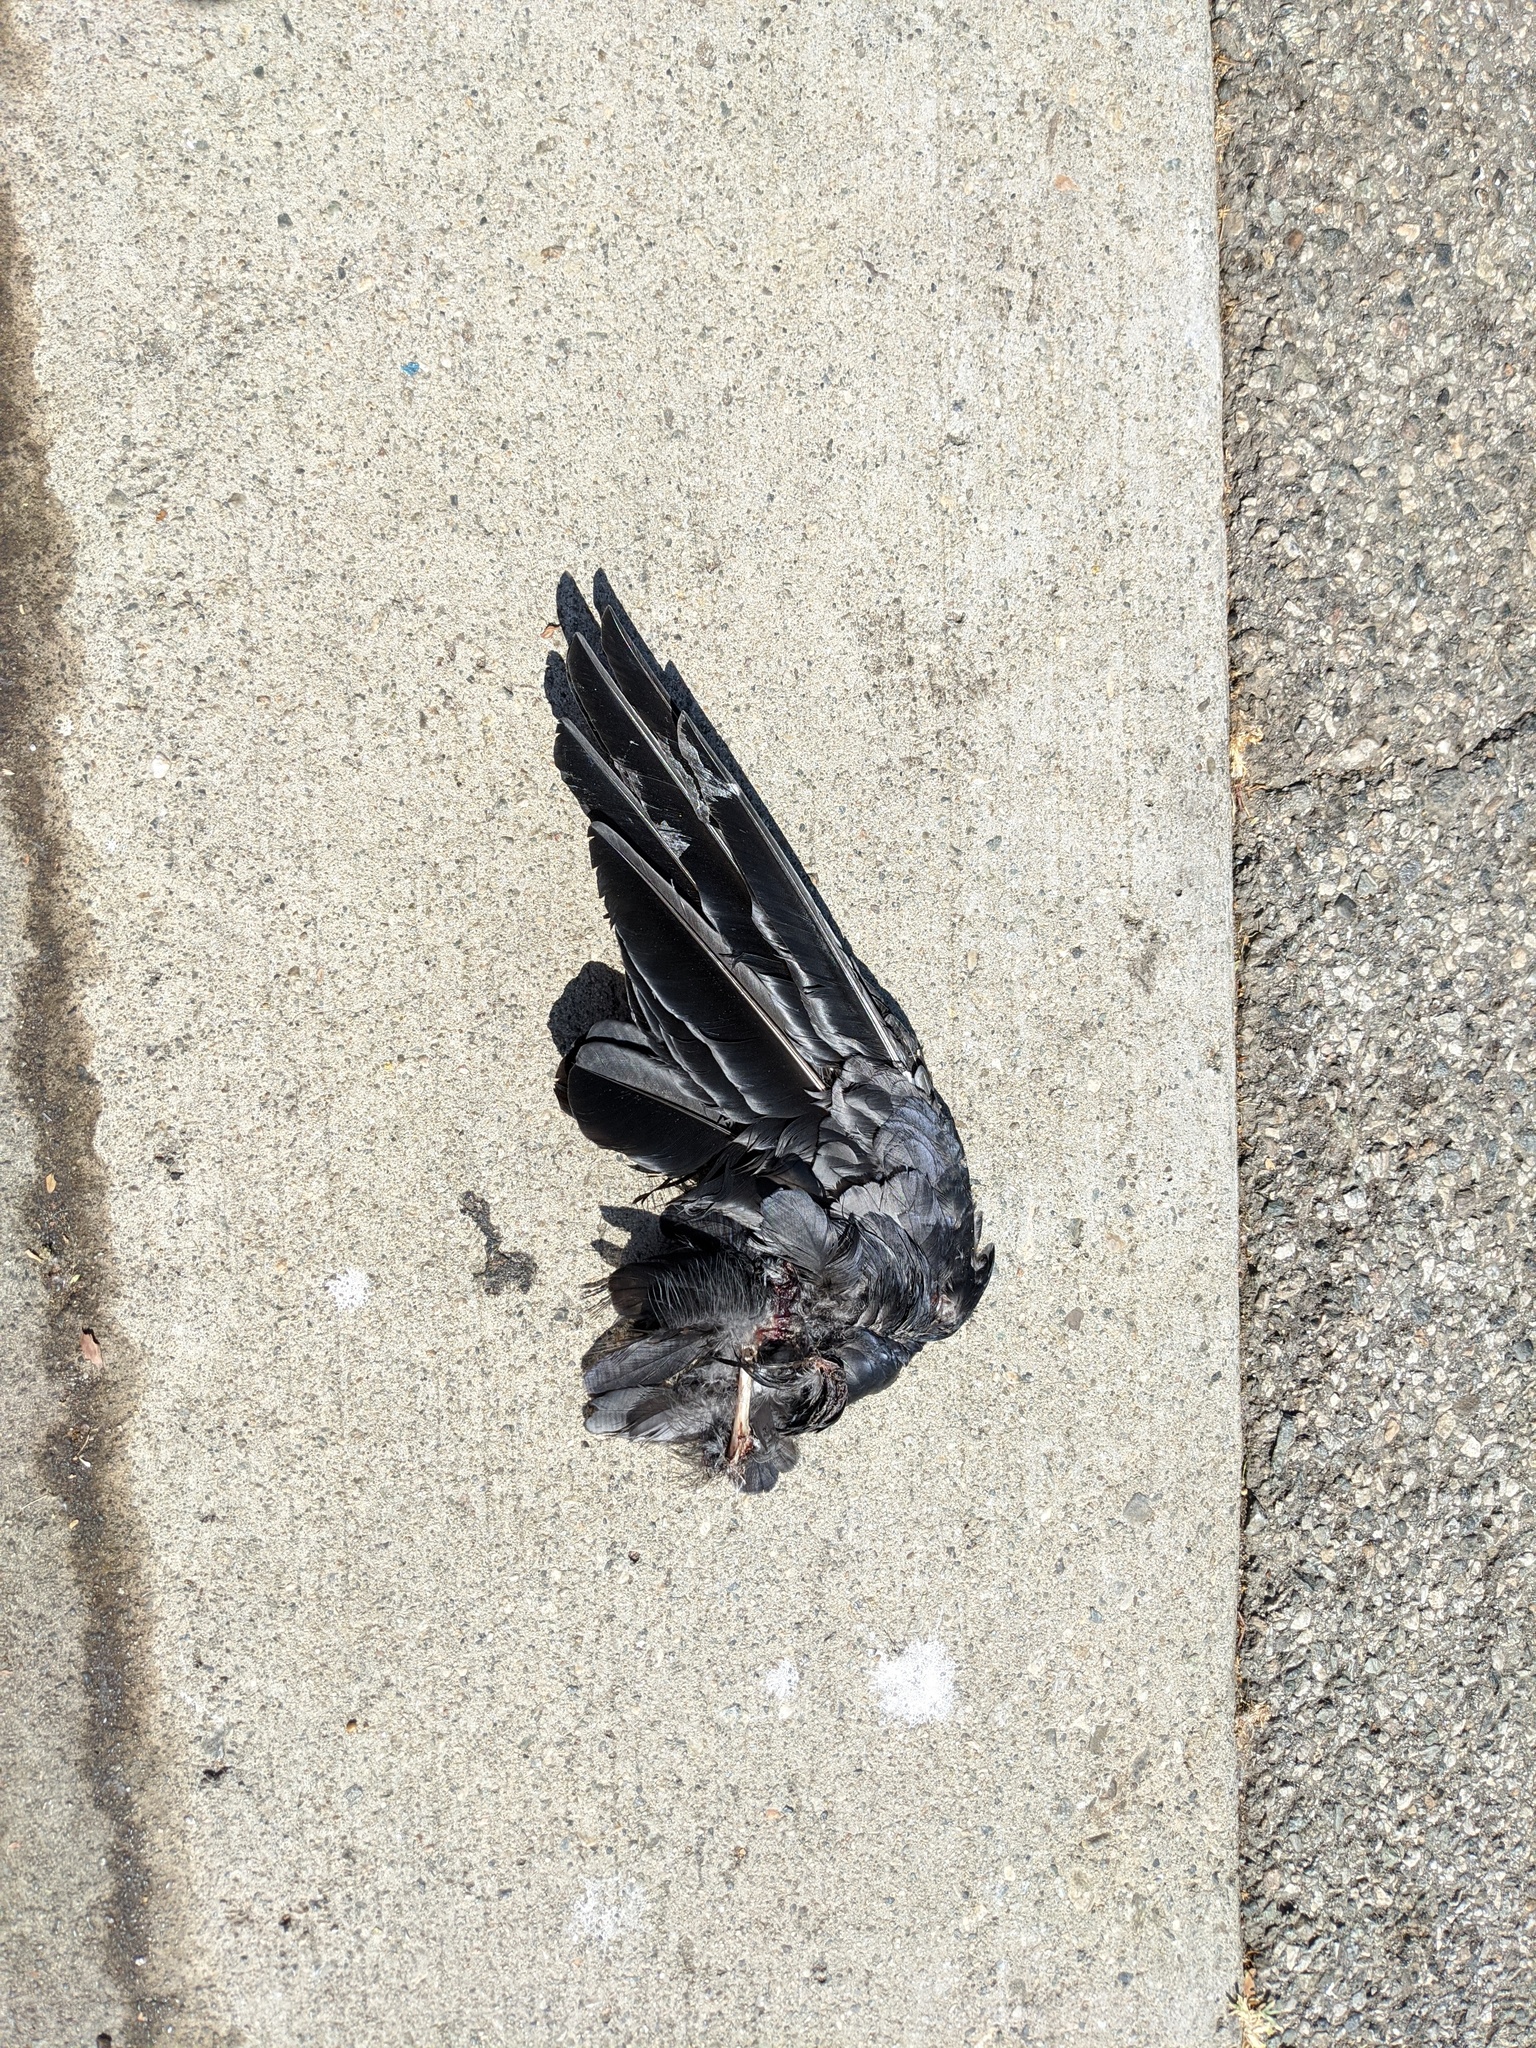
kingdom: Animalia
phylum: Chordata
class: Aves
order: Passeriformes
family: Corvidae
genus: Corvus
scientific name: Corvus brachyrhynchos
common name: American crow
